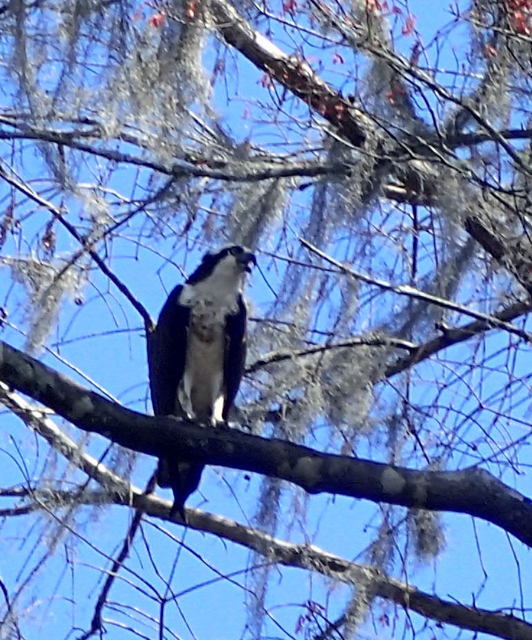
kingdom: Animalia
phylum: Chordata
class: Aves
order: Accipitriformes
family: Pandionidae
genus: Pandion
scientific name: Pandion haliaetus
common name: Osprey
